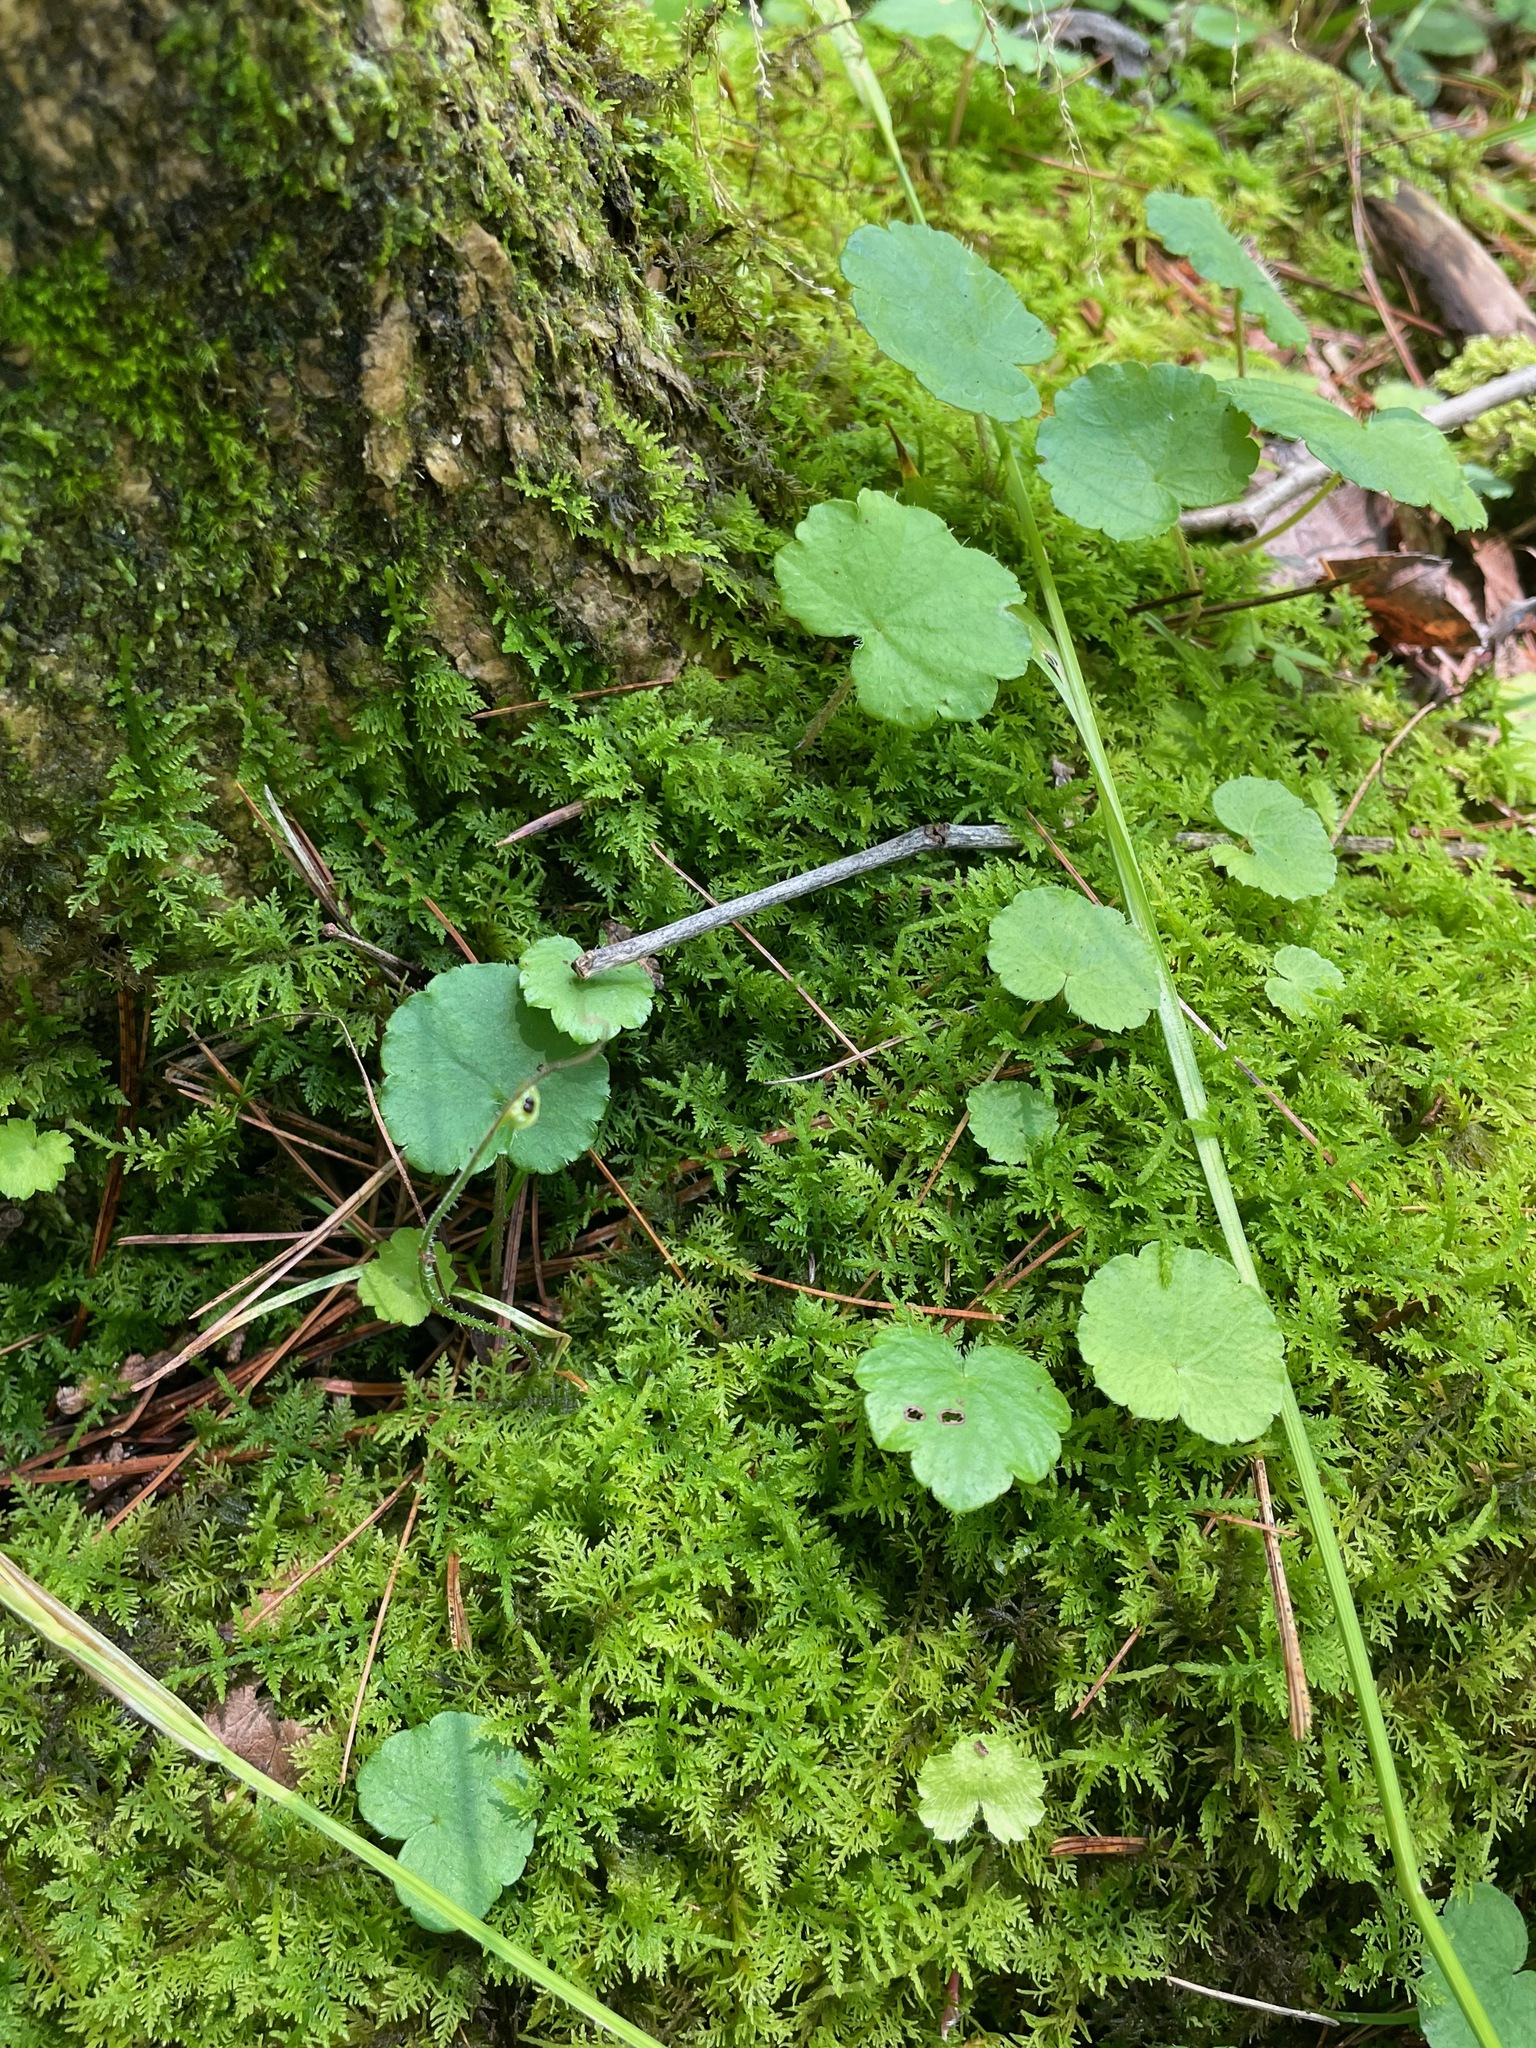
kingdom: Plantae
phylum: Tracheophyta
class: Magnoliopsida
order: Saxifragales
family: Saxifragaceae
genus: Mitella
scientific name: Mitella nuda
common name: Bare-stemmed bishop's-cap
